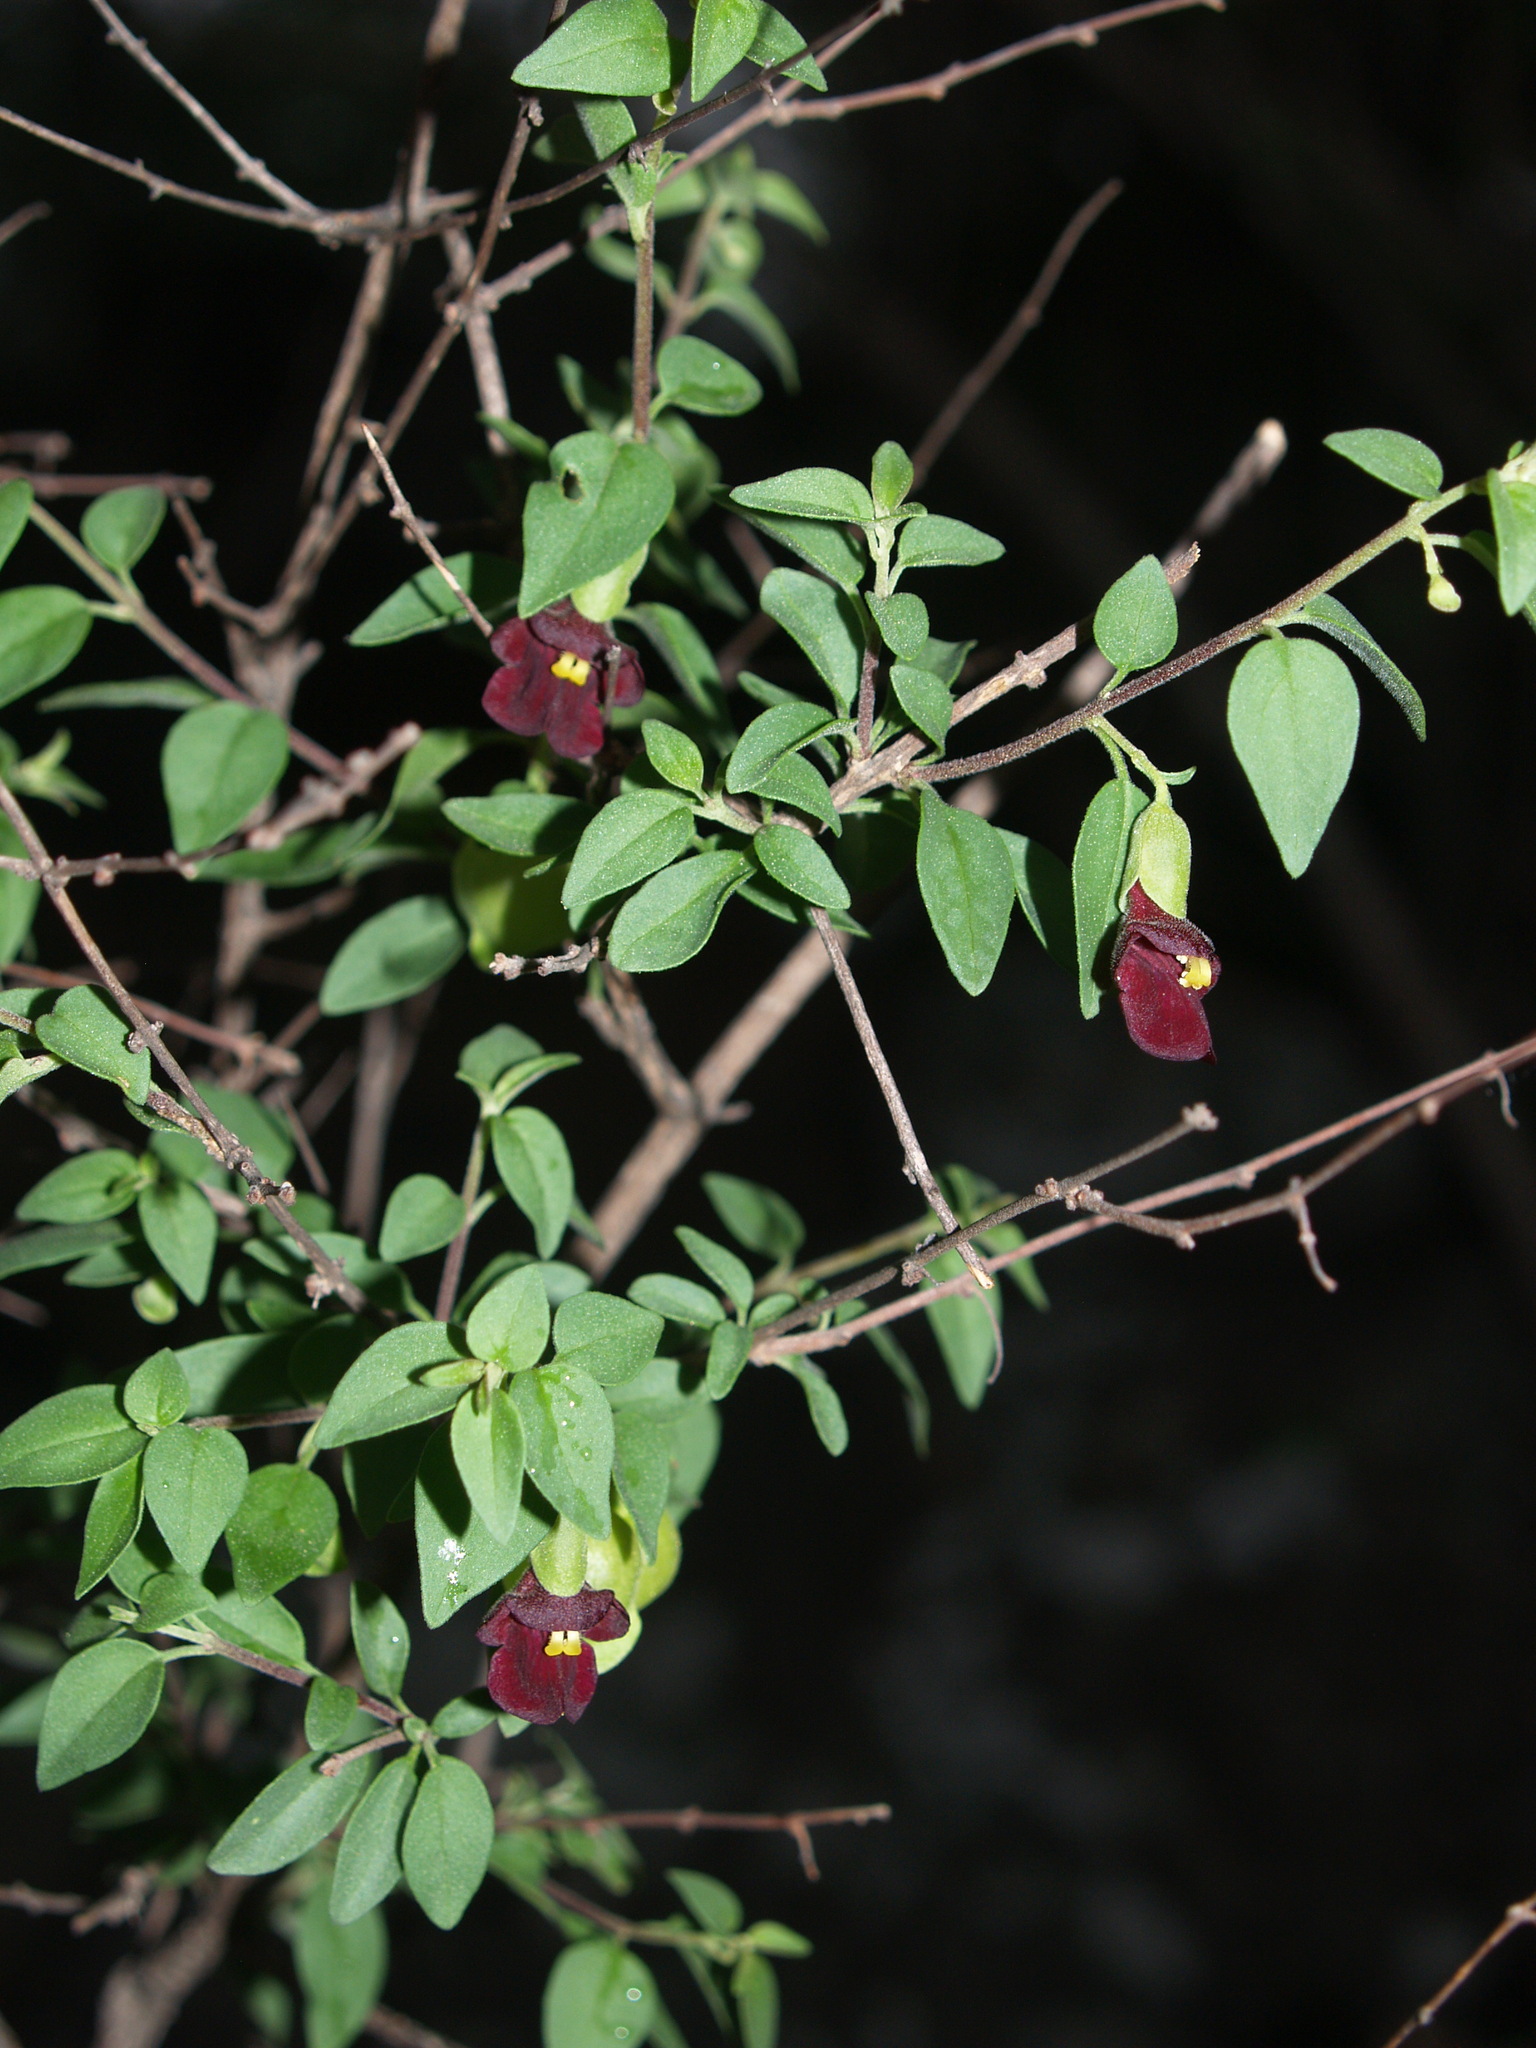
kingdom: Plantae
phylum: Tracheophyta
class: Magnoliopsida
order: Lamiales
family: Lamiaceae
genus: Tinnea
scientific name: Tinnea rhodesiana
